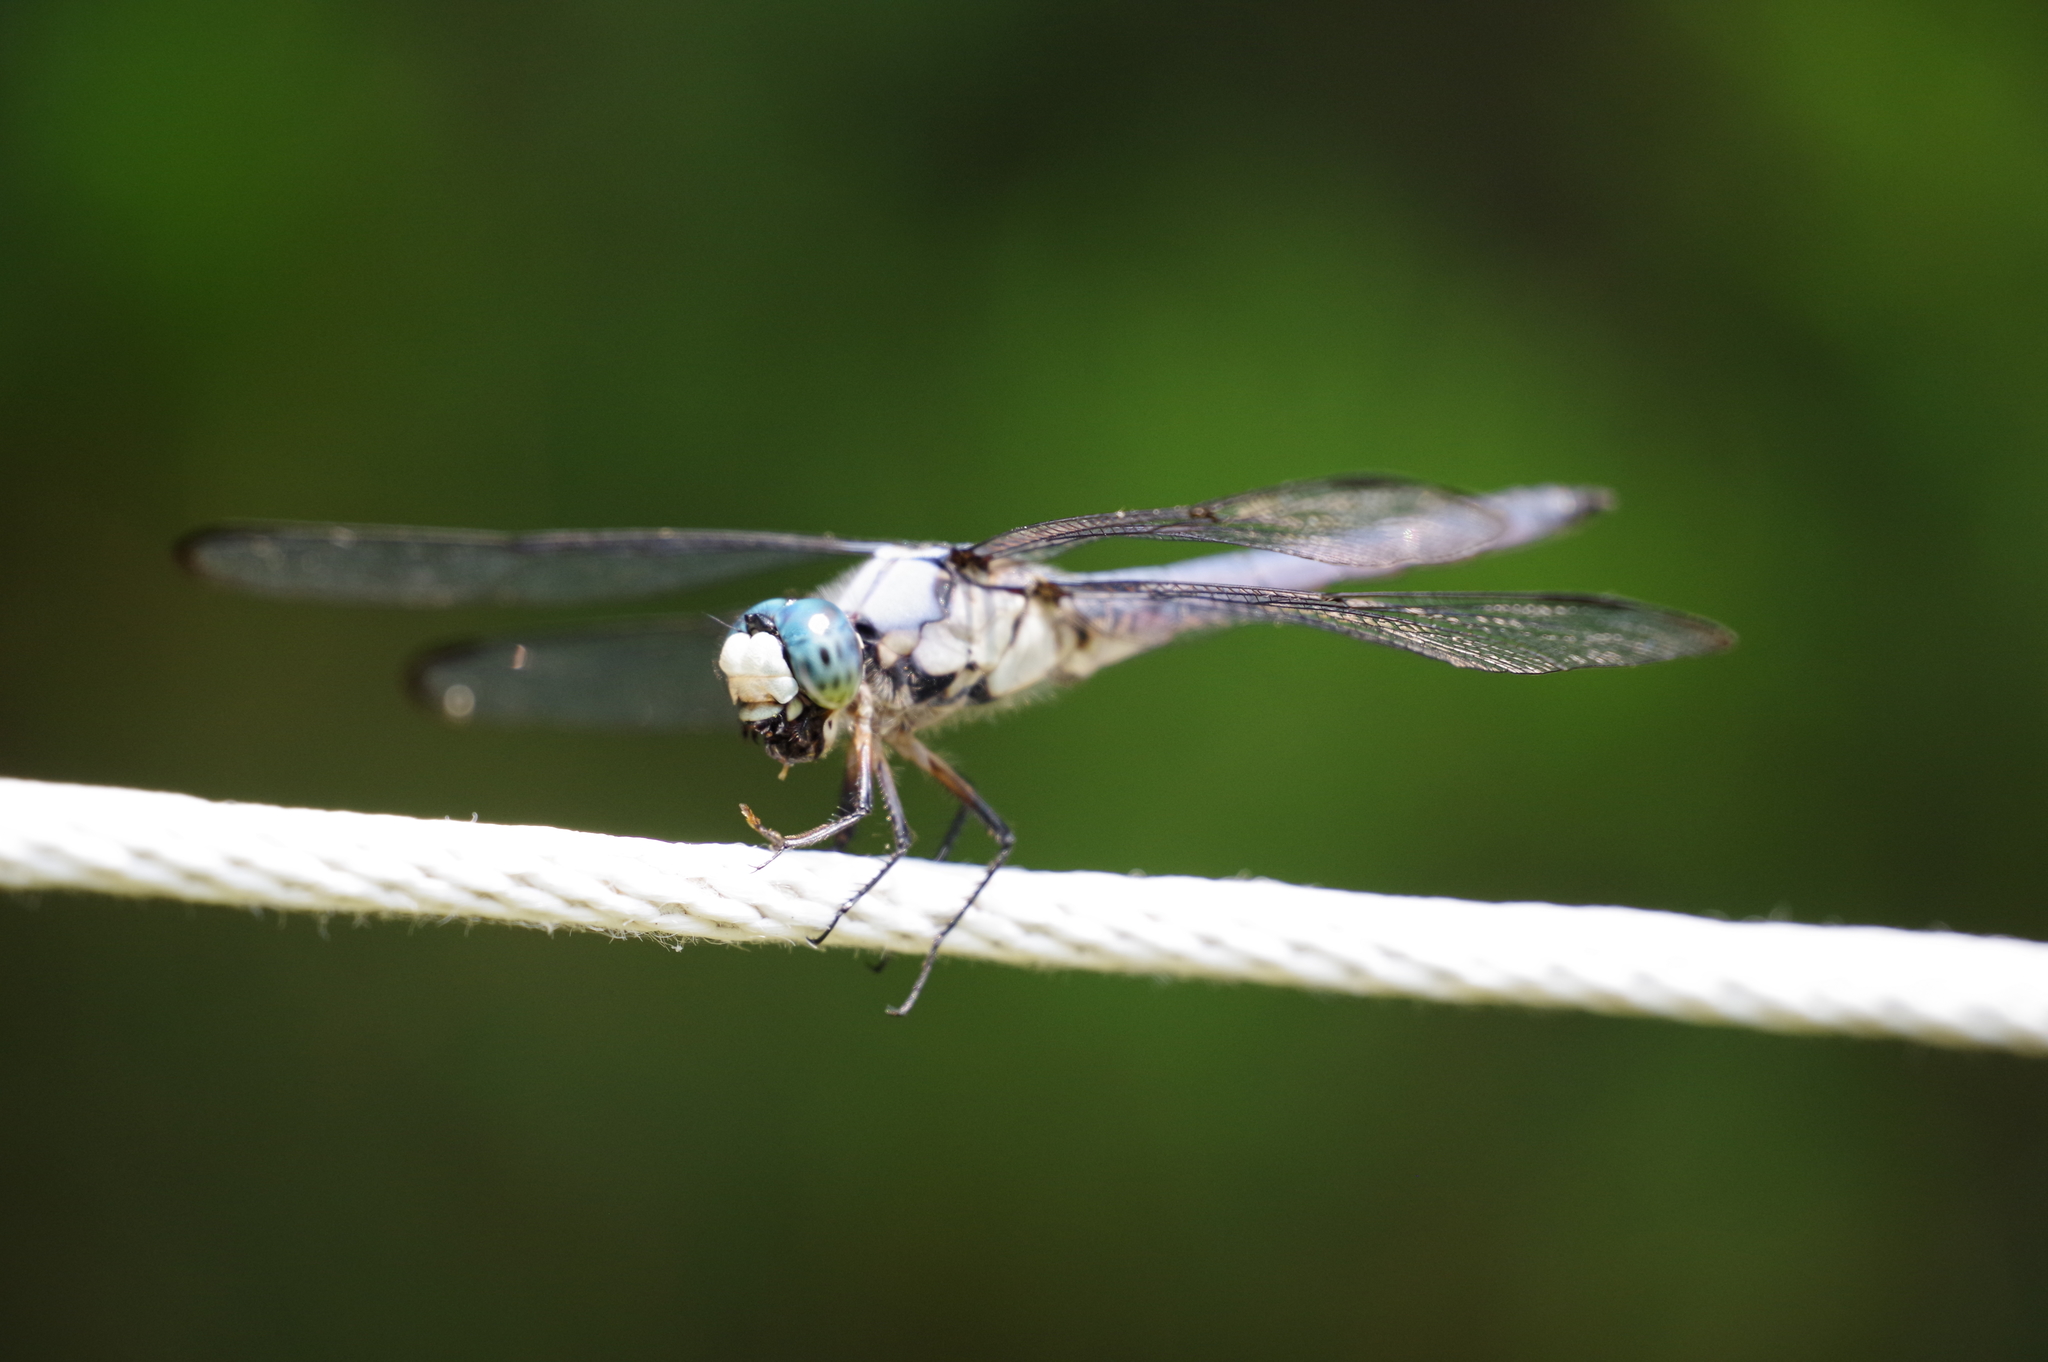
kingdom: Animalia
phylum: Arthropoda
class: Insecta
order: Odonata
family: Libellulidae
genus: Libellula
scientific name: Libellula vibrans
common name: Great blue skimmer
